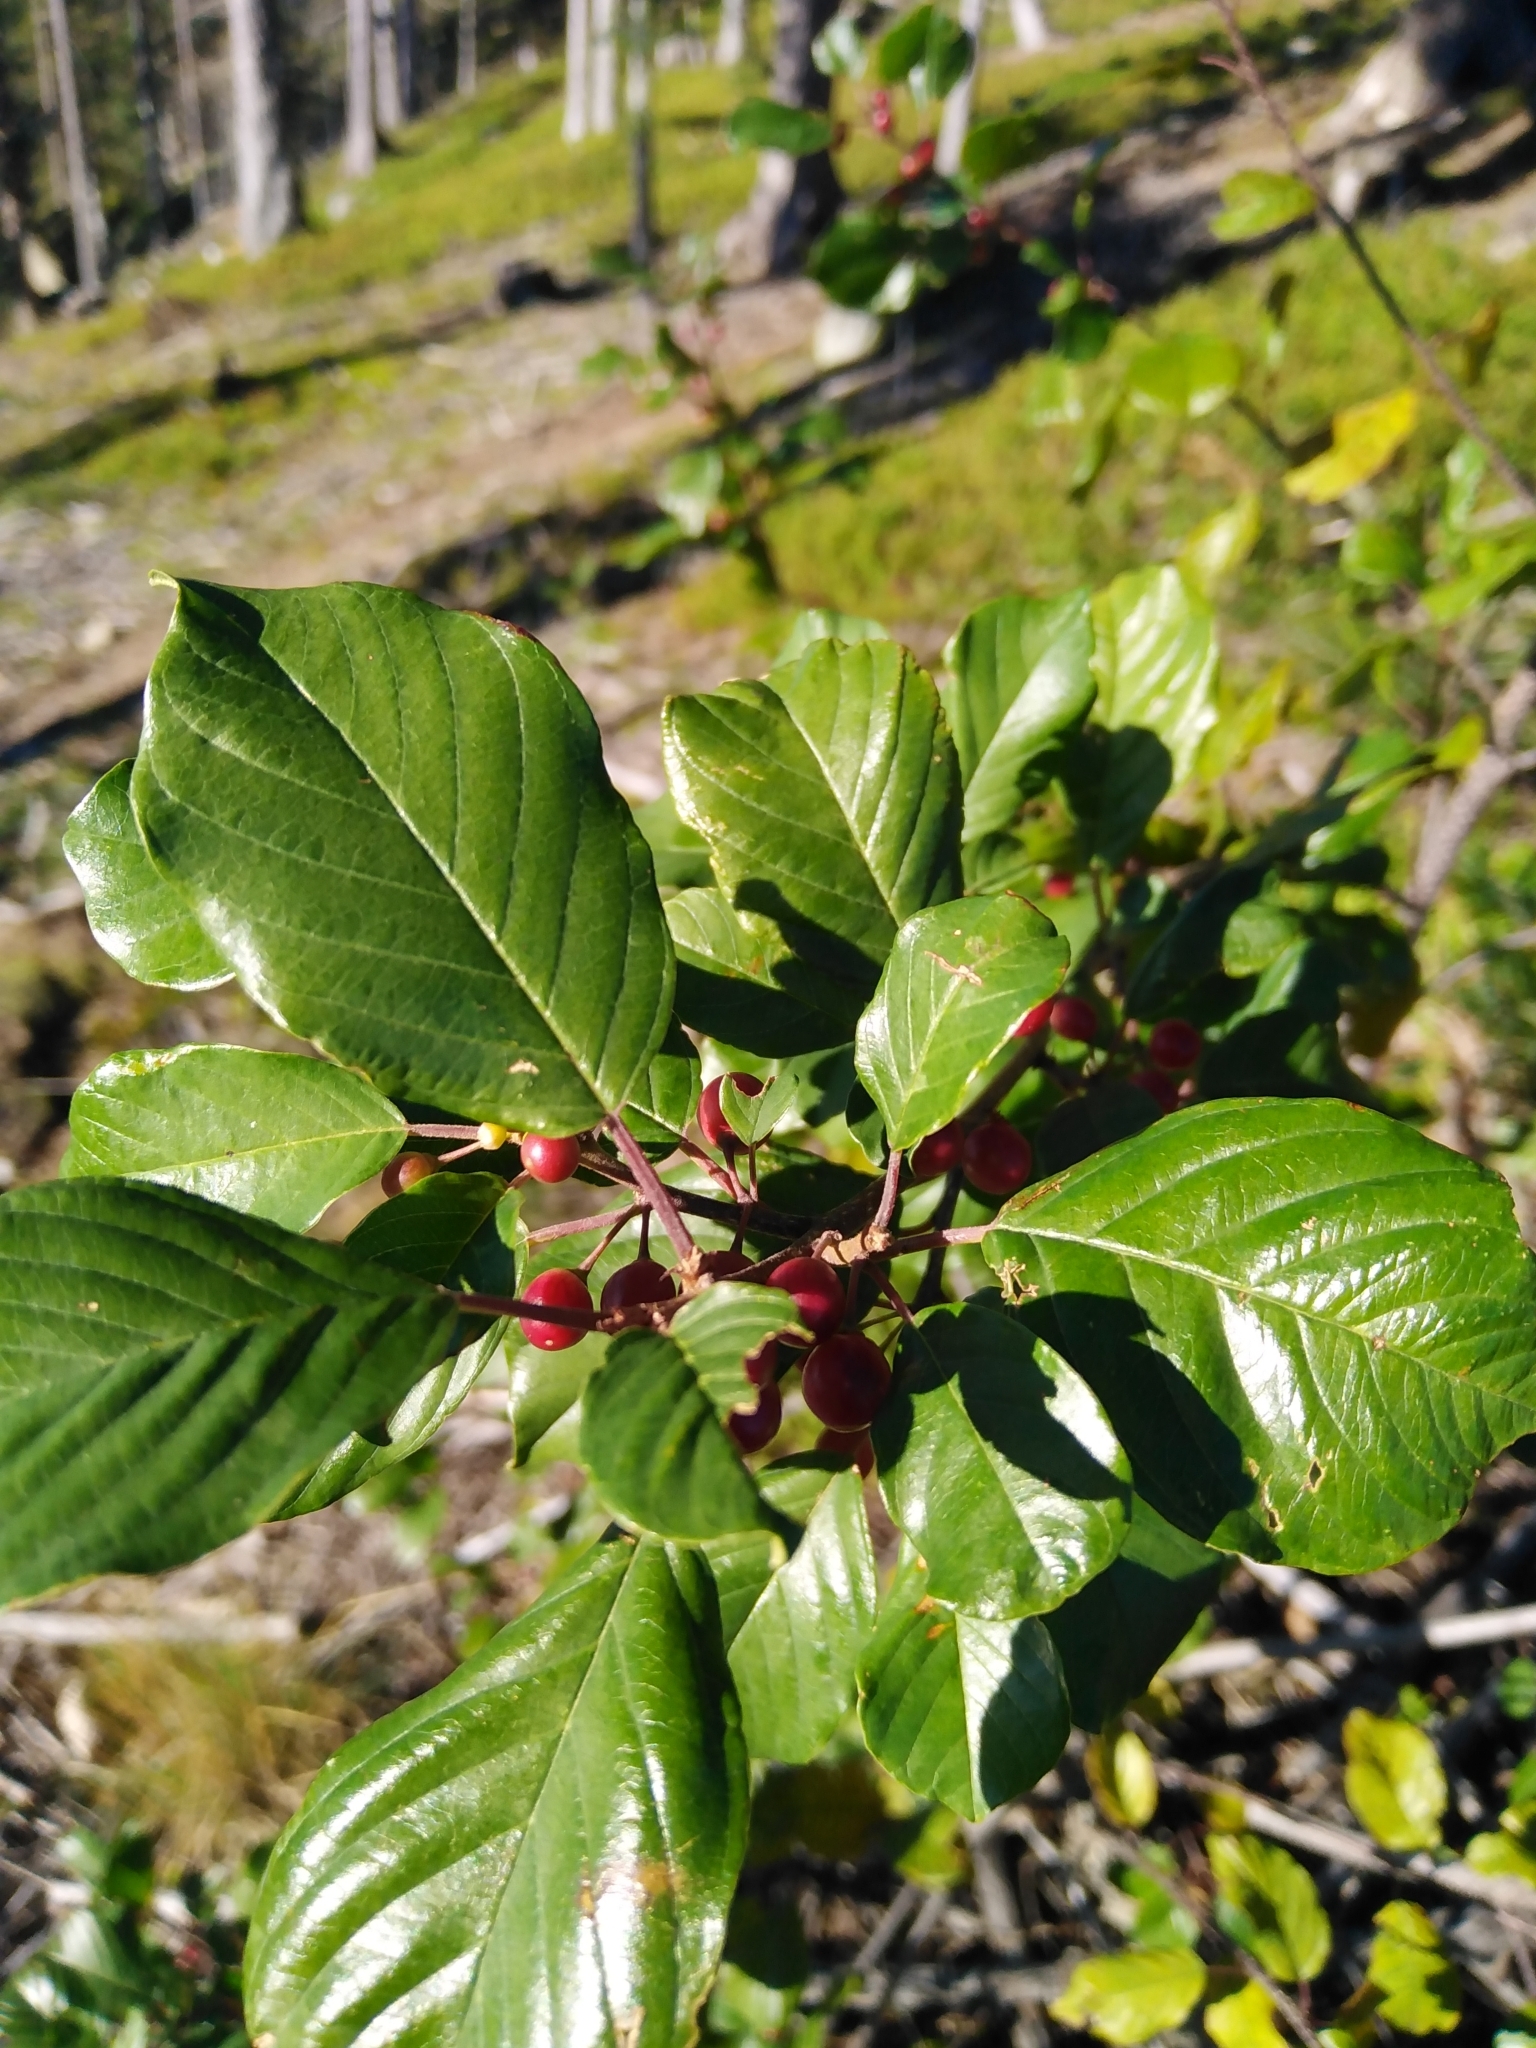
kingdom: Plantae
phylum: Tracheophyta
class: Magnoliopsida
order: Rosales
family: Rhamnaceae
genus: Frangula
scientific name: Frangula alnus
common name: Alder buckthorn
